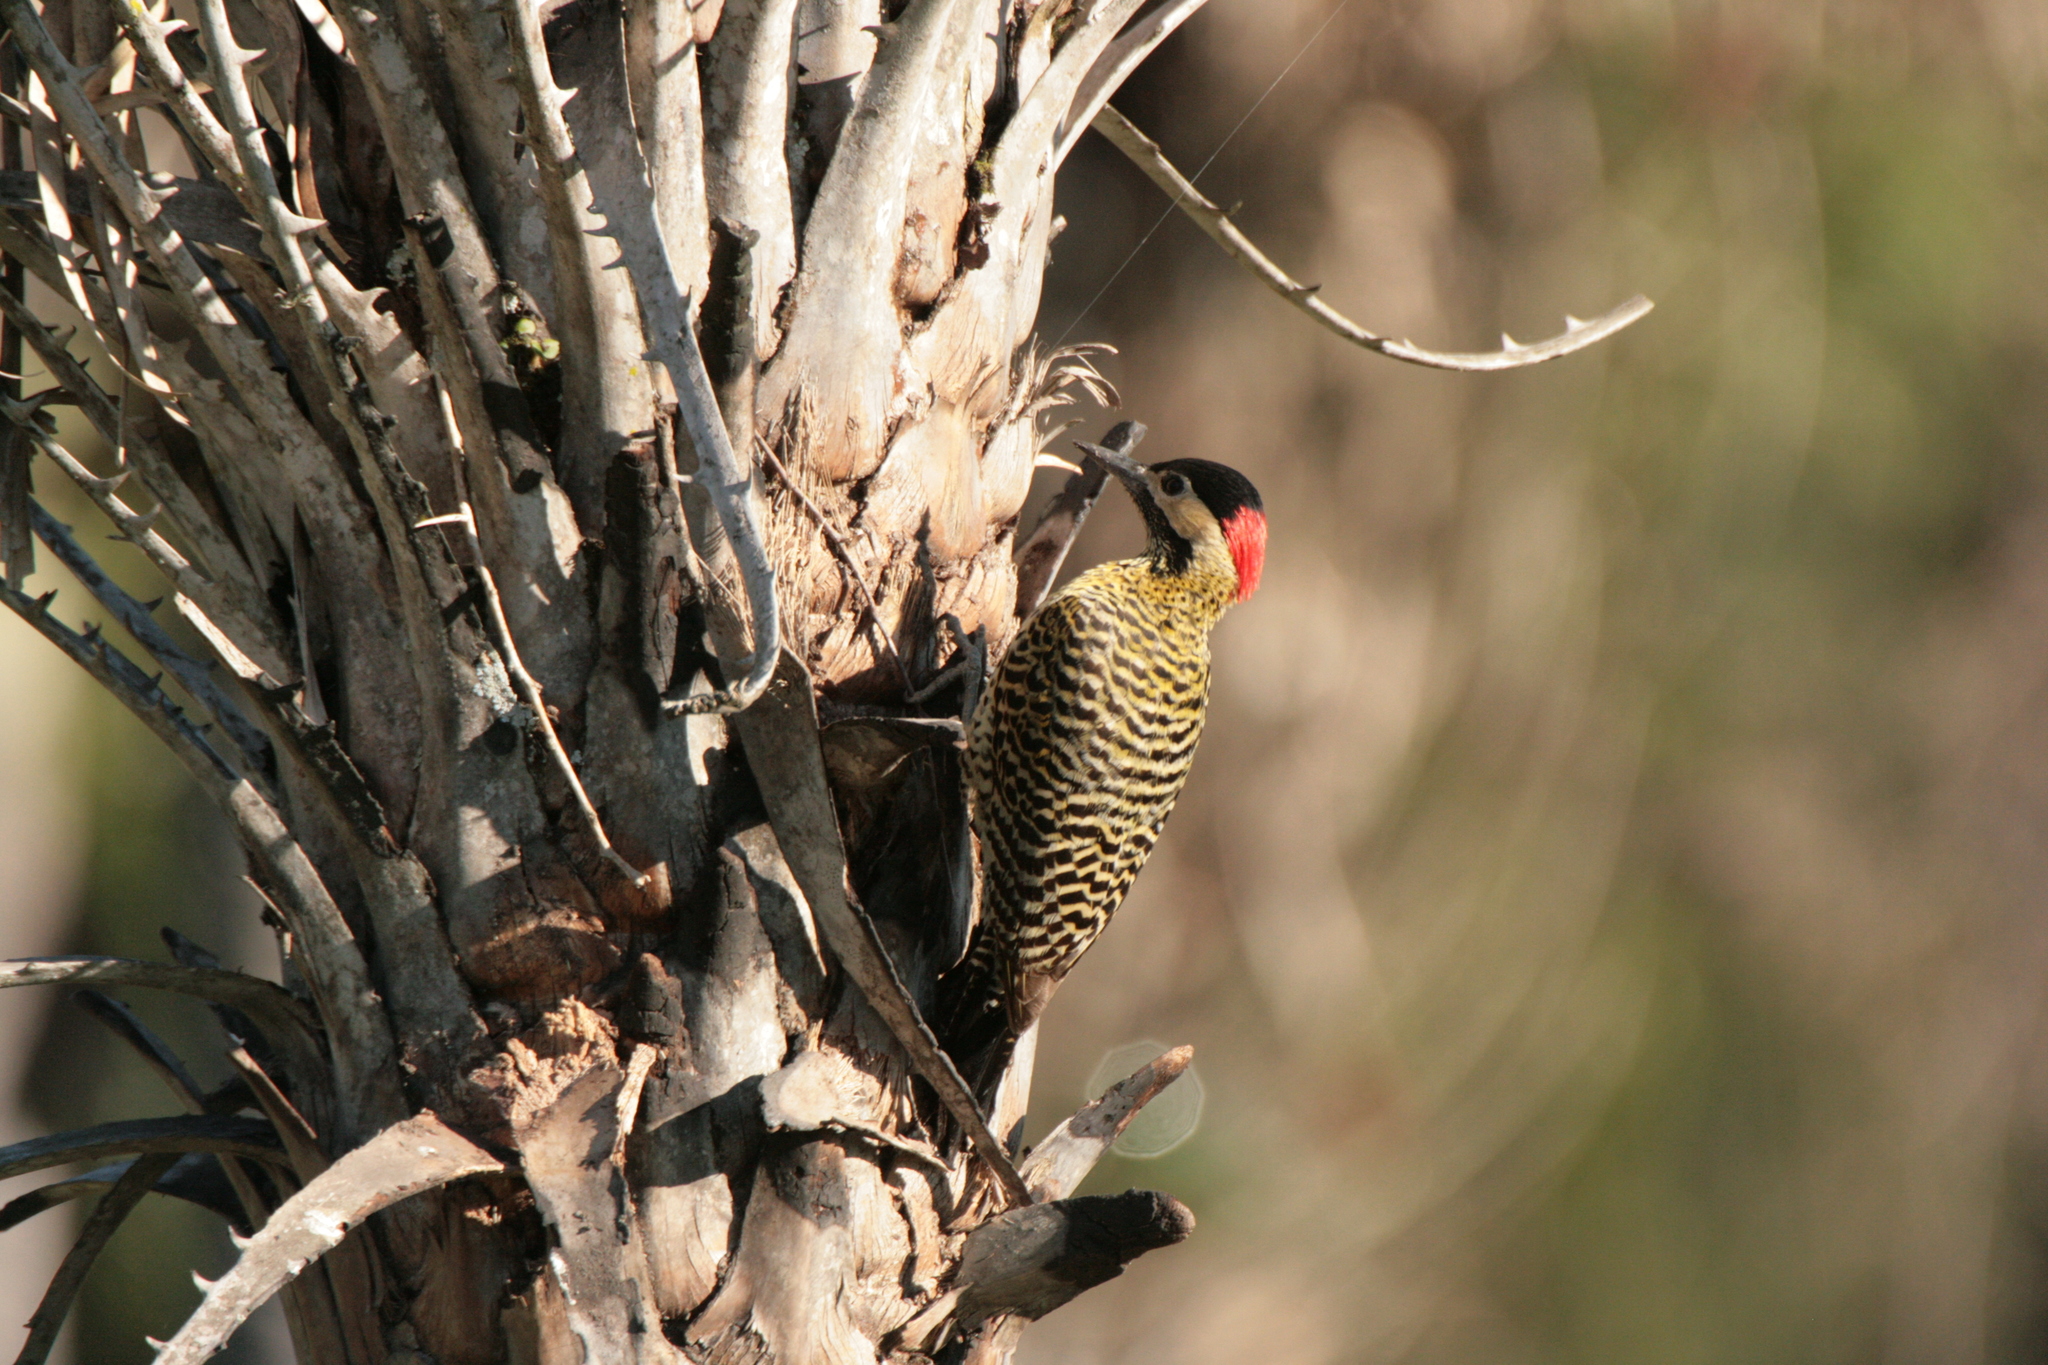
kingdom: Animalia
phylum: Chordata
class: Aves
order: Piciformes
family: Picidae
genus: Colaptes
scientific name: Colaptes melanochloros
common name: Green-barred woodpecker
